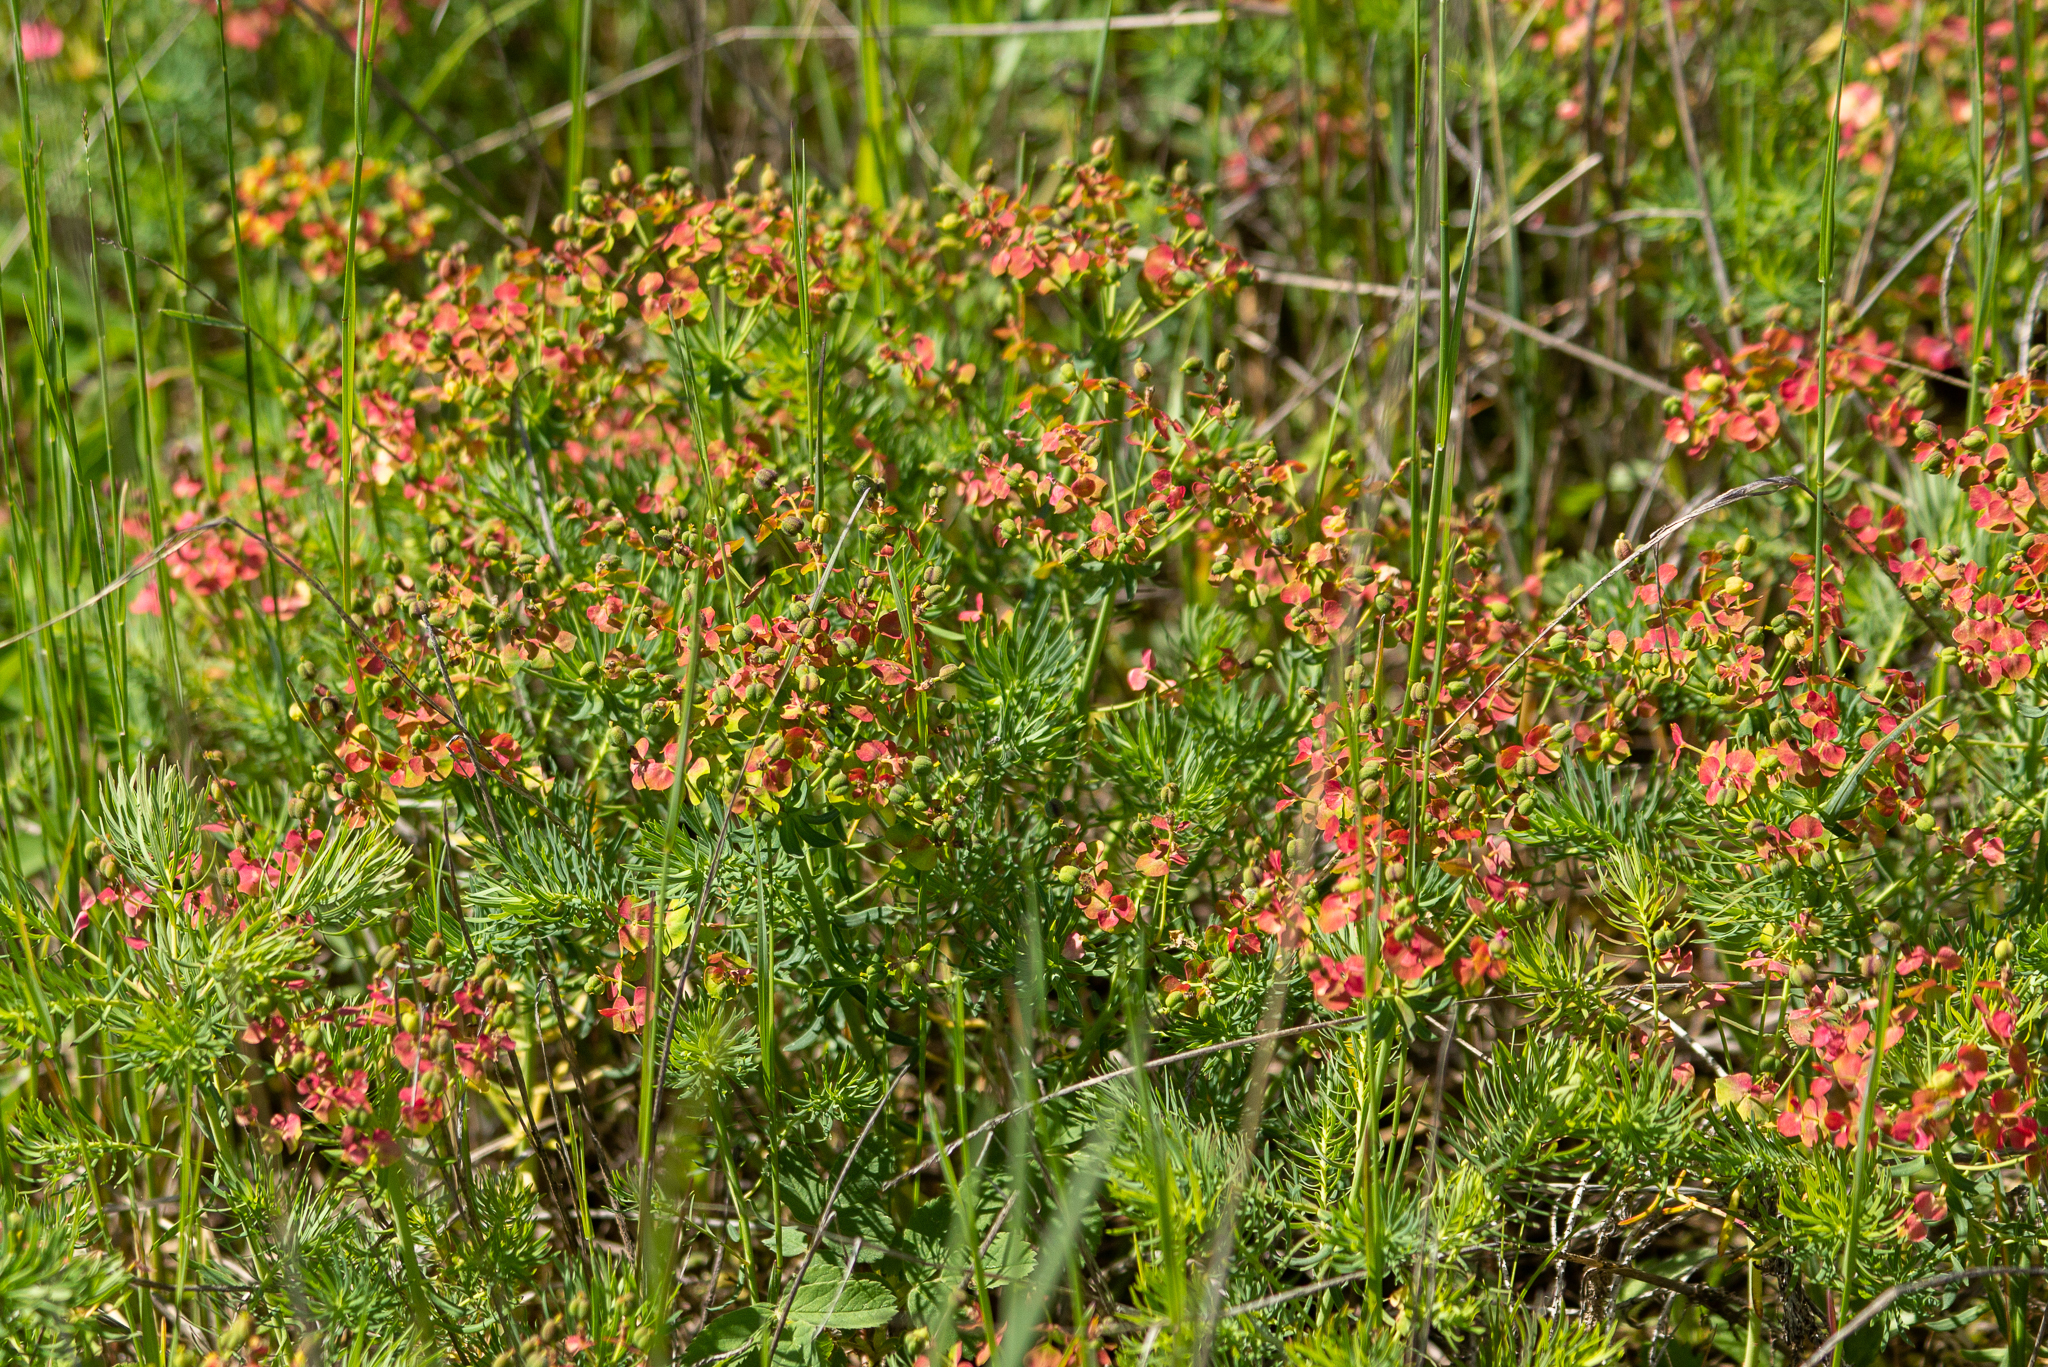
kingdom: Plantae
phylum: Tracheophyta
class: Magnoliopsida
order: Malpighiales
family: Euphorbiaceae
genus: Euphorbia
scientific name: Euphorbia cyparissias
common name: Cypress spurge
